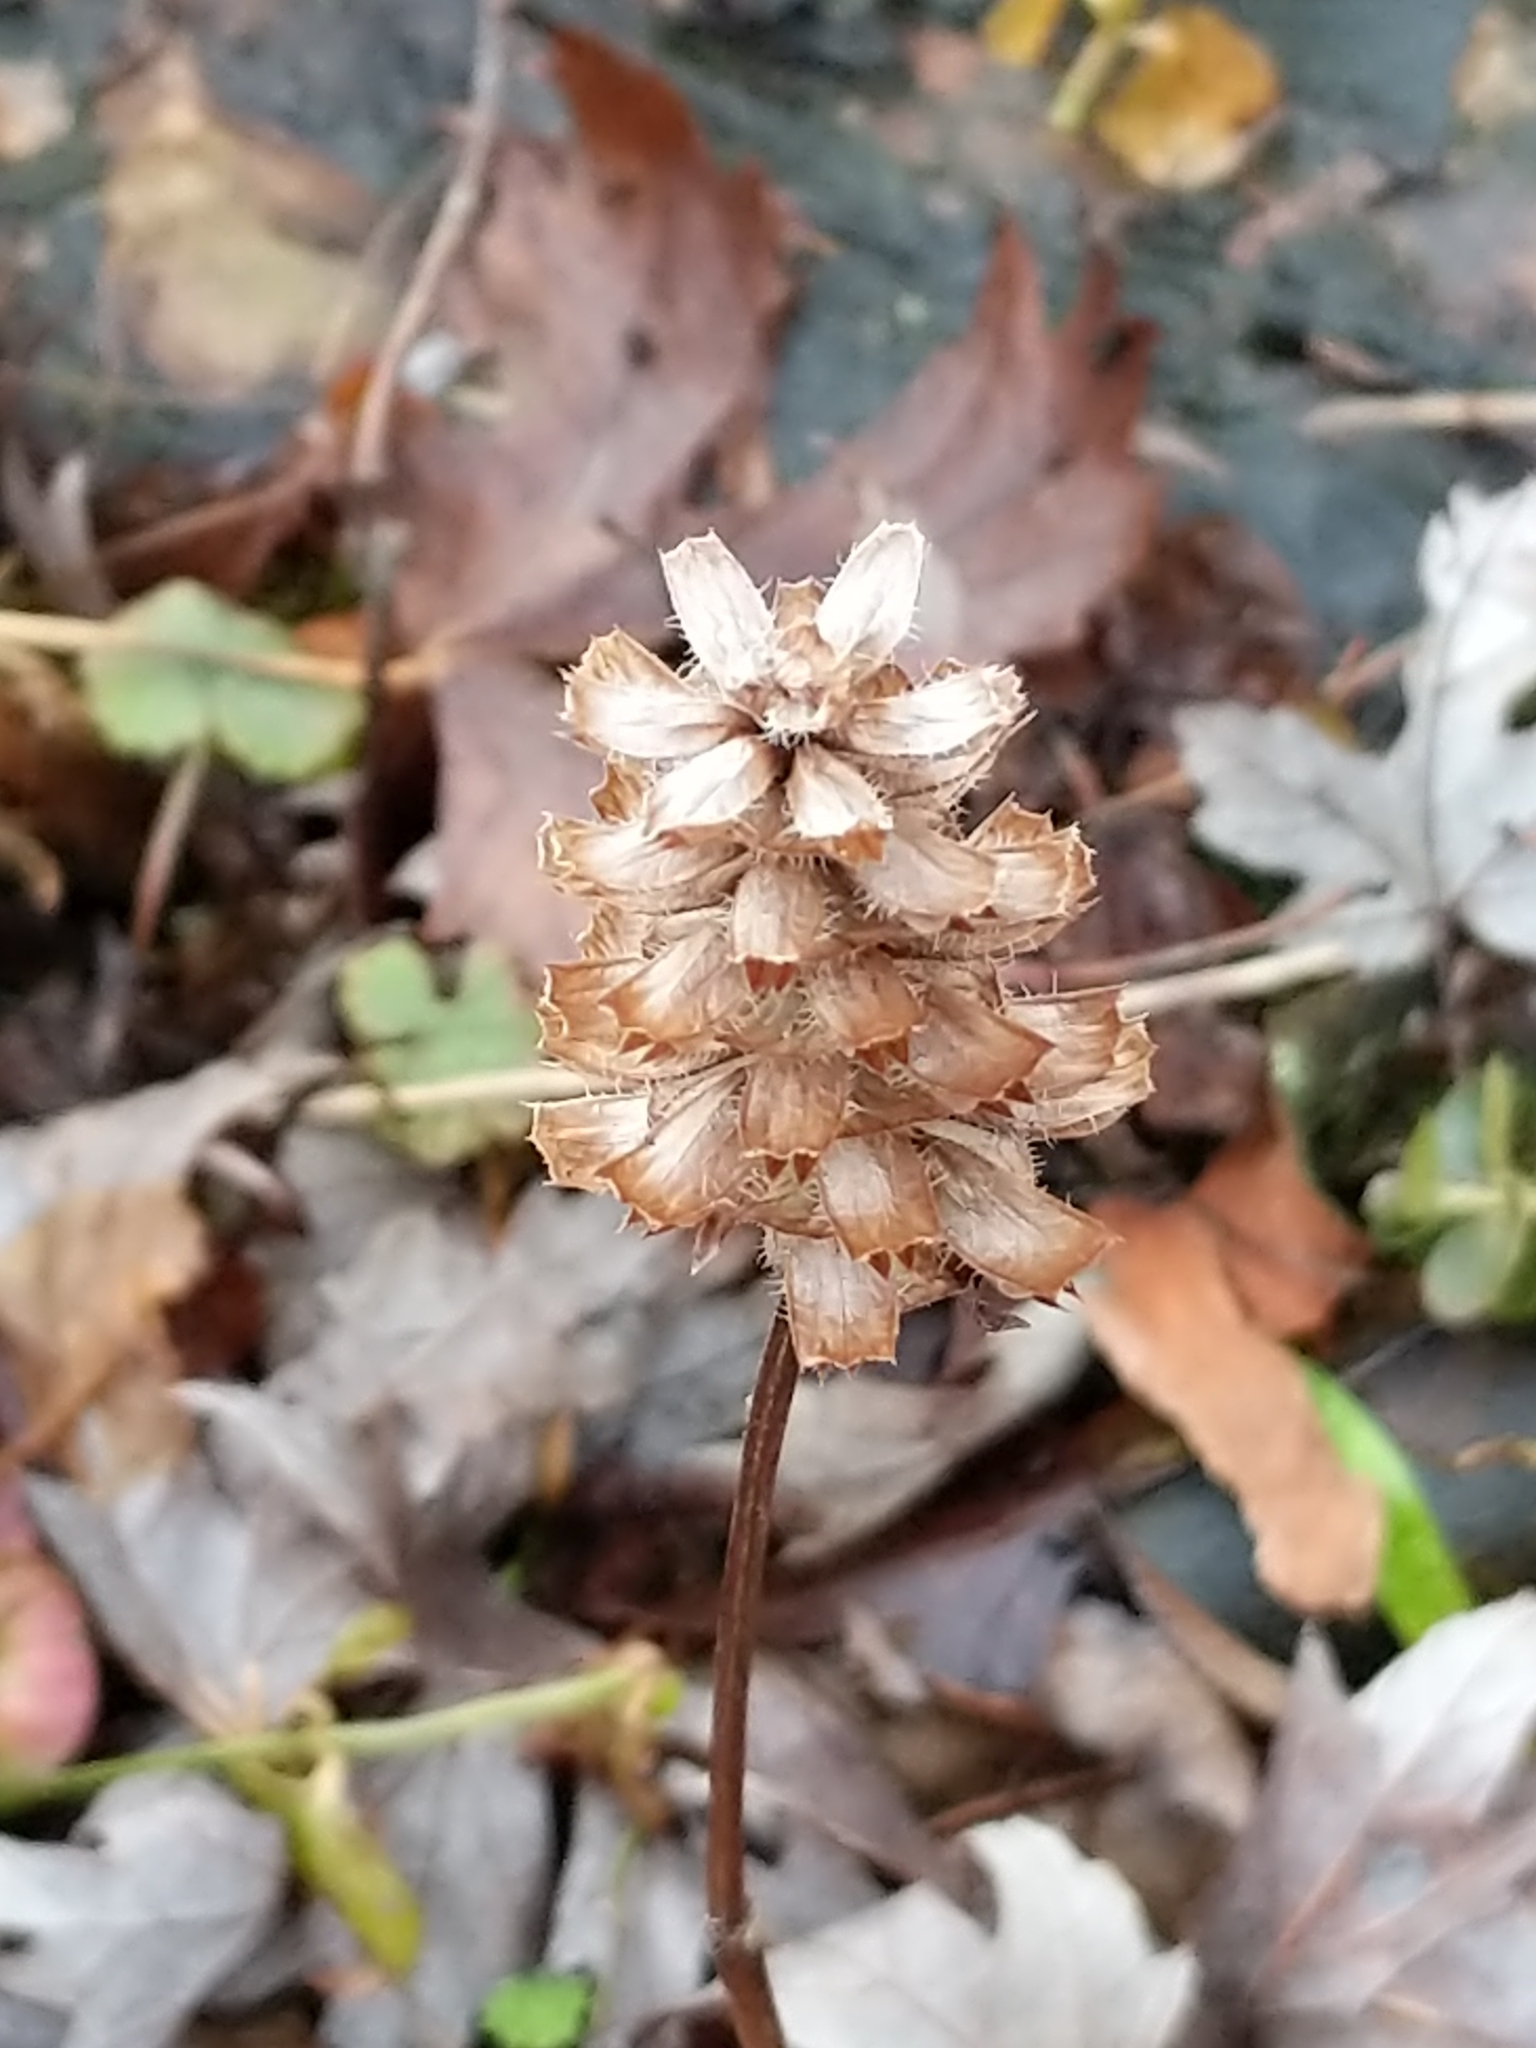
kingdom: Plantae
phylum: Tracheophyta
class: Magnoliopsida
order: Lamiales
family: Lamiaceae
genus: Prunella
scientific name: Prunella vulgaris
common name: Heal-all
